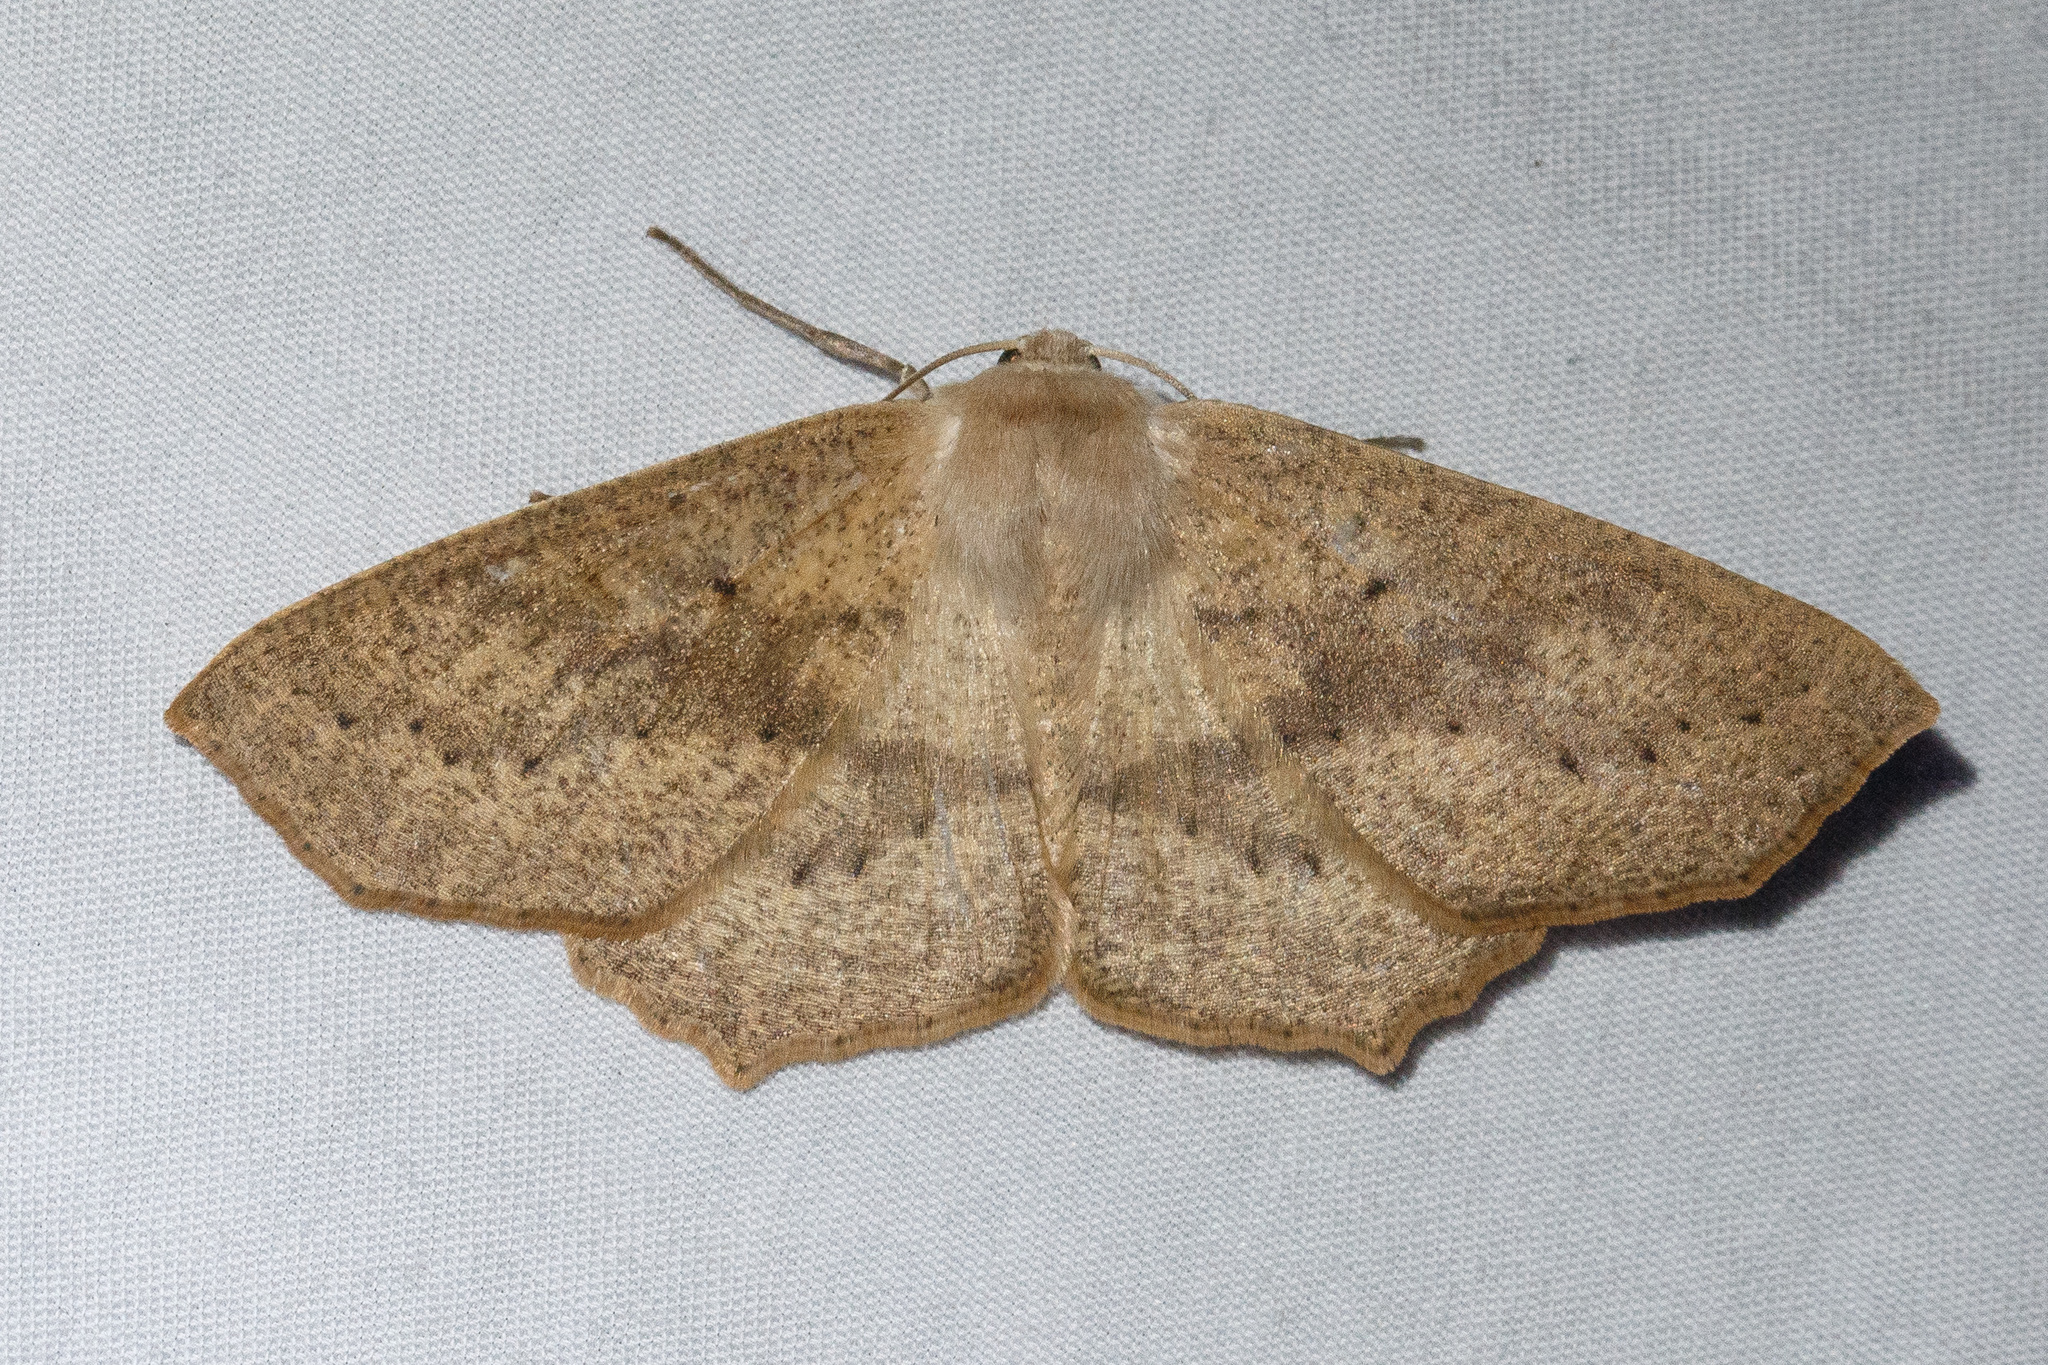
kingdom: Animalia
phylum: Arthropoda
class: Insecta
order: Lepidoptera
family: Geometridae
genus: Sabulodes
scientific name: Sabulodes aegrotata
